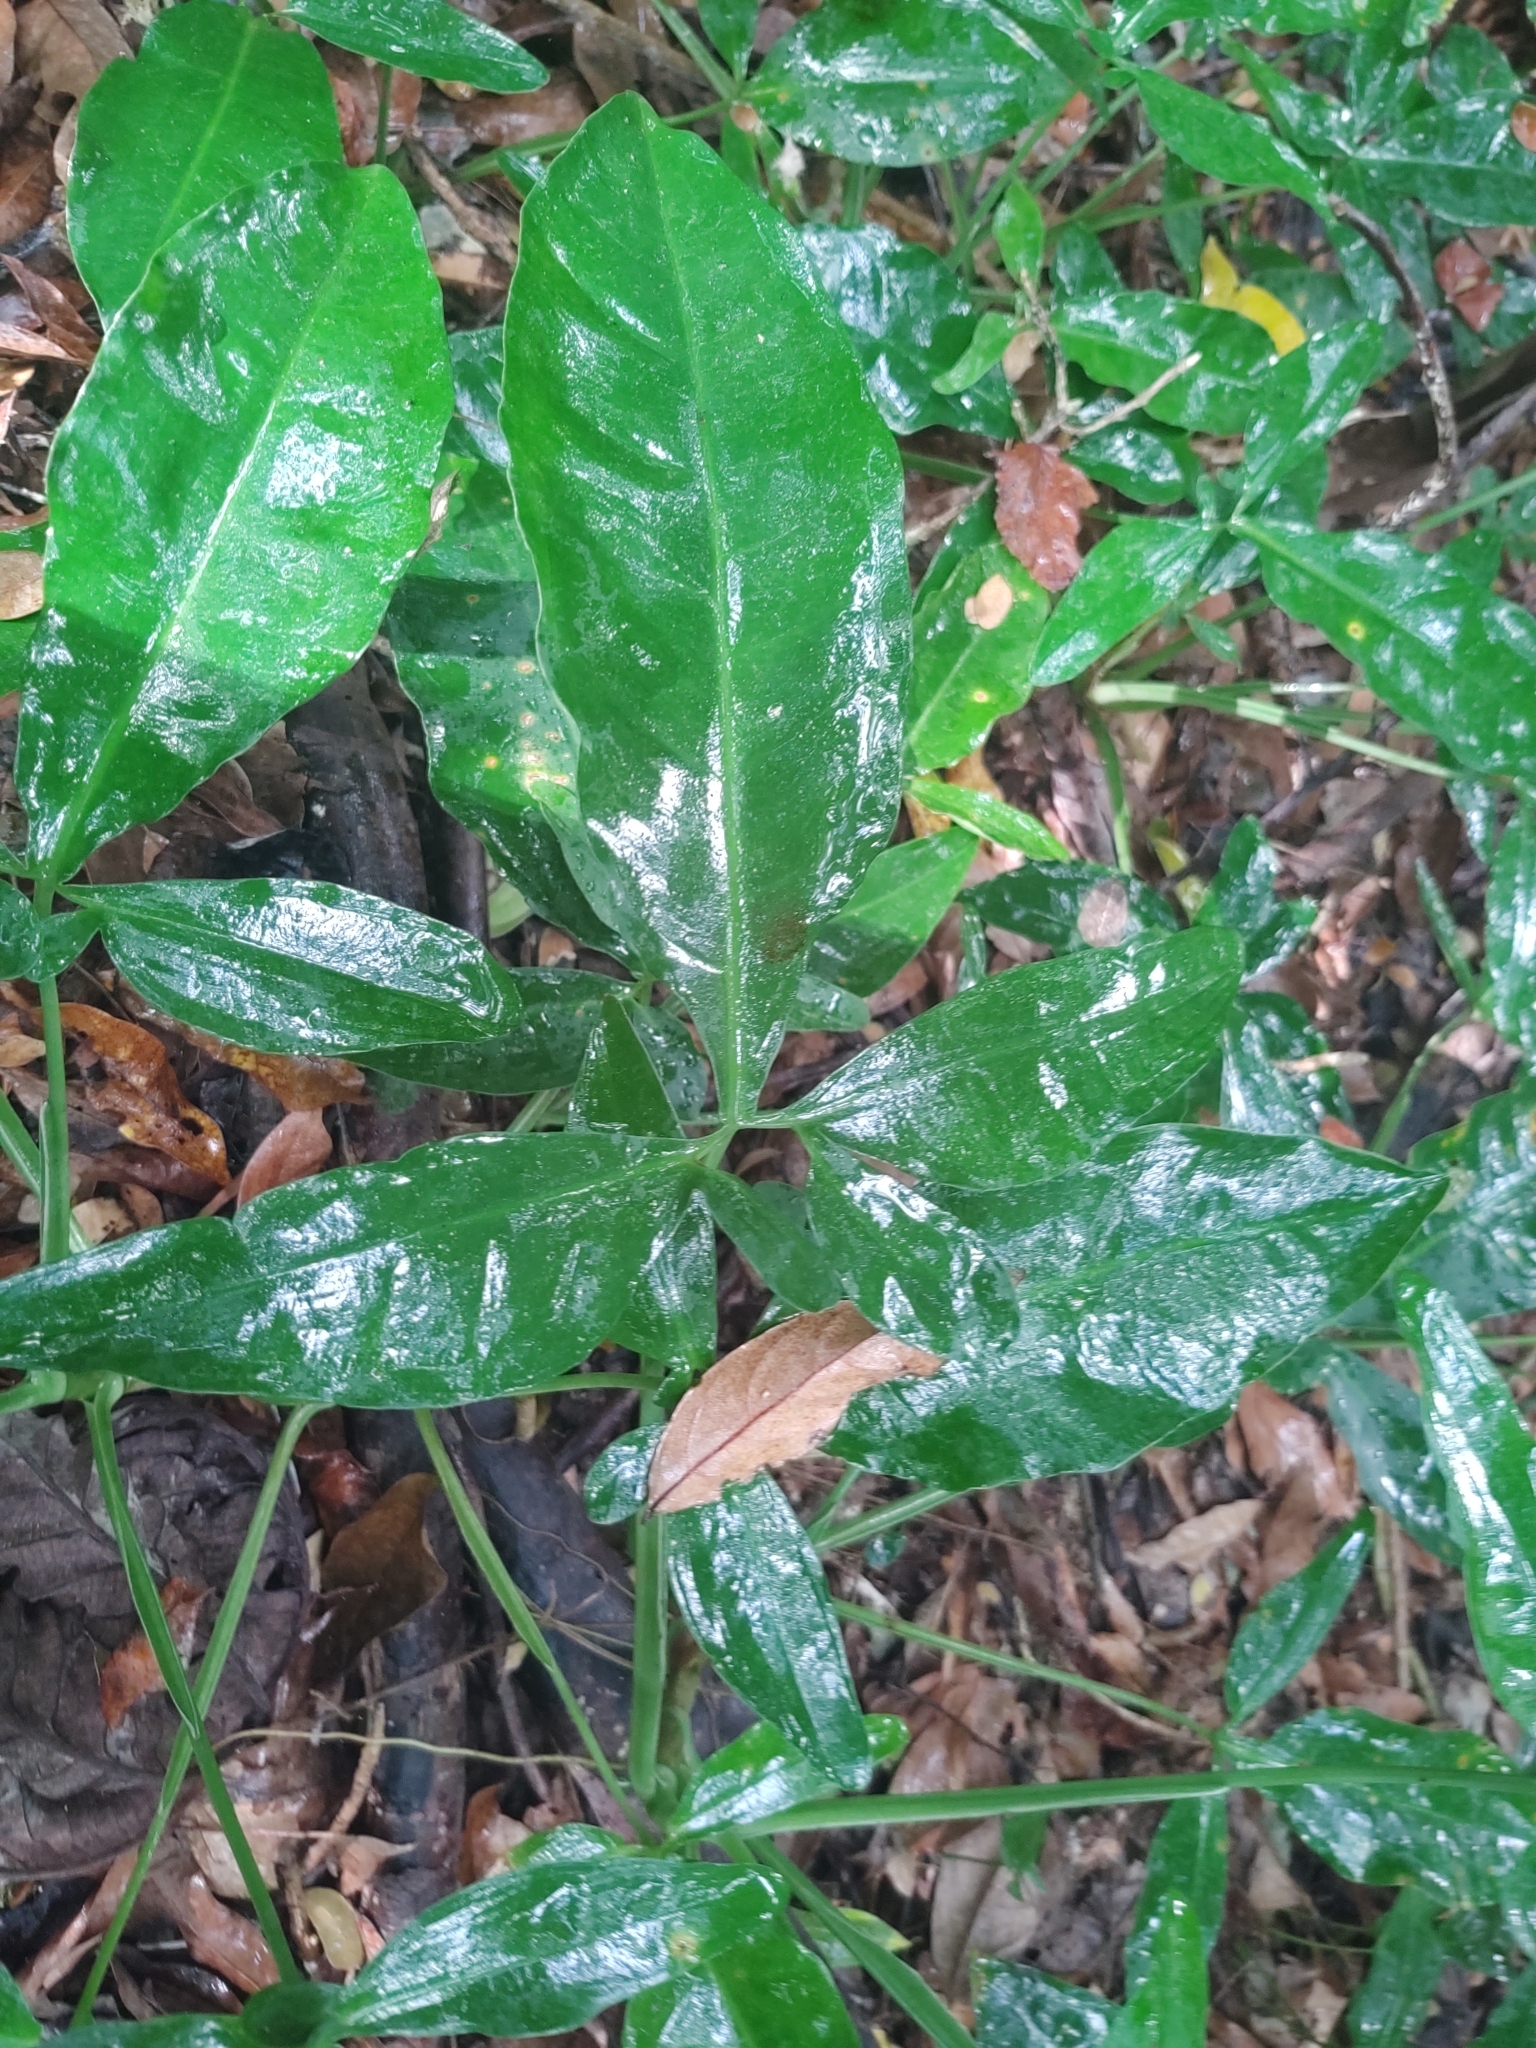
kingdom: Plantae
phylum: Tracheophyta
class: Liliopsida
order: Alismatales
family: Araceae
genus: Syngonium
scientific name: Syngonium auritum
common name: Five-fingers
